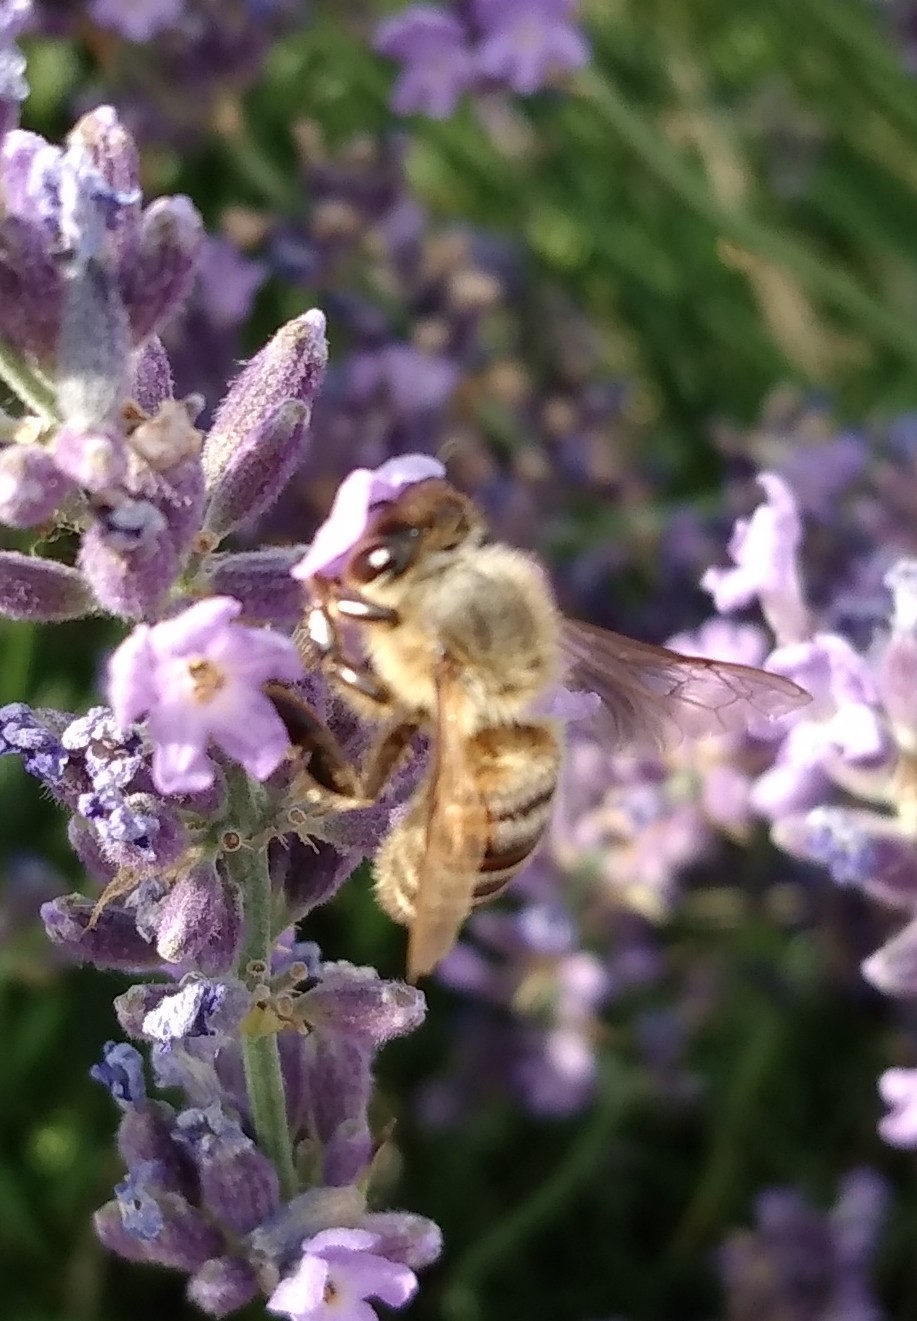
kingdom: Animalia
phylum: Arthropoda
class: Insecta
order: Hymenoptera
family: Apidae
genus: Apis
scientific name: Apis mellifera
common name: Honey bee
